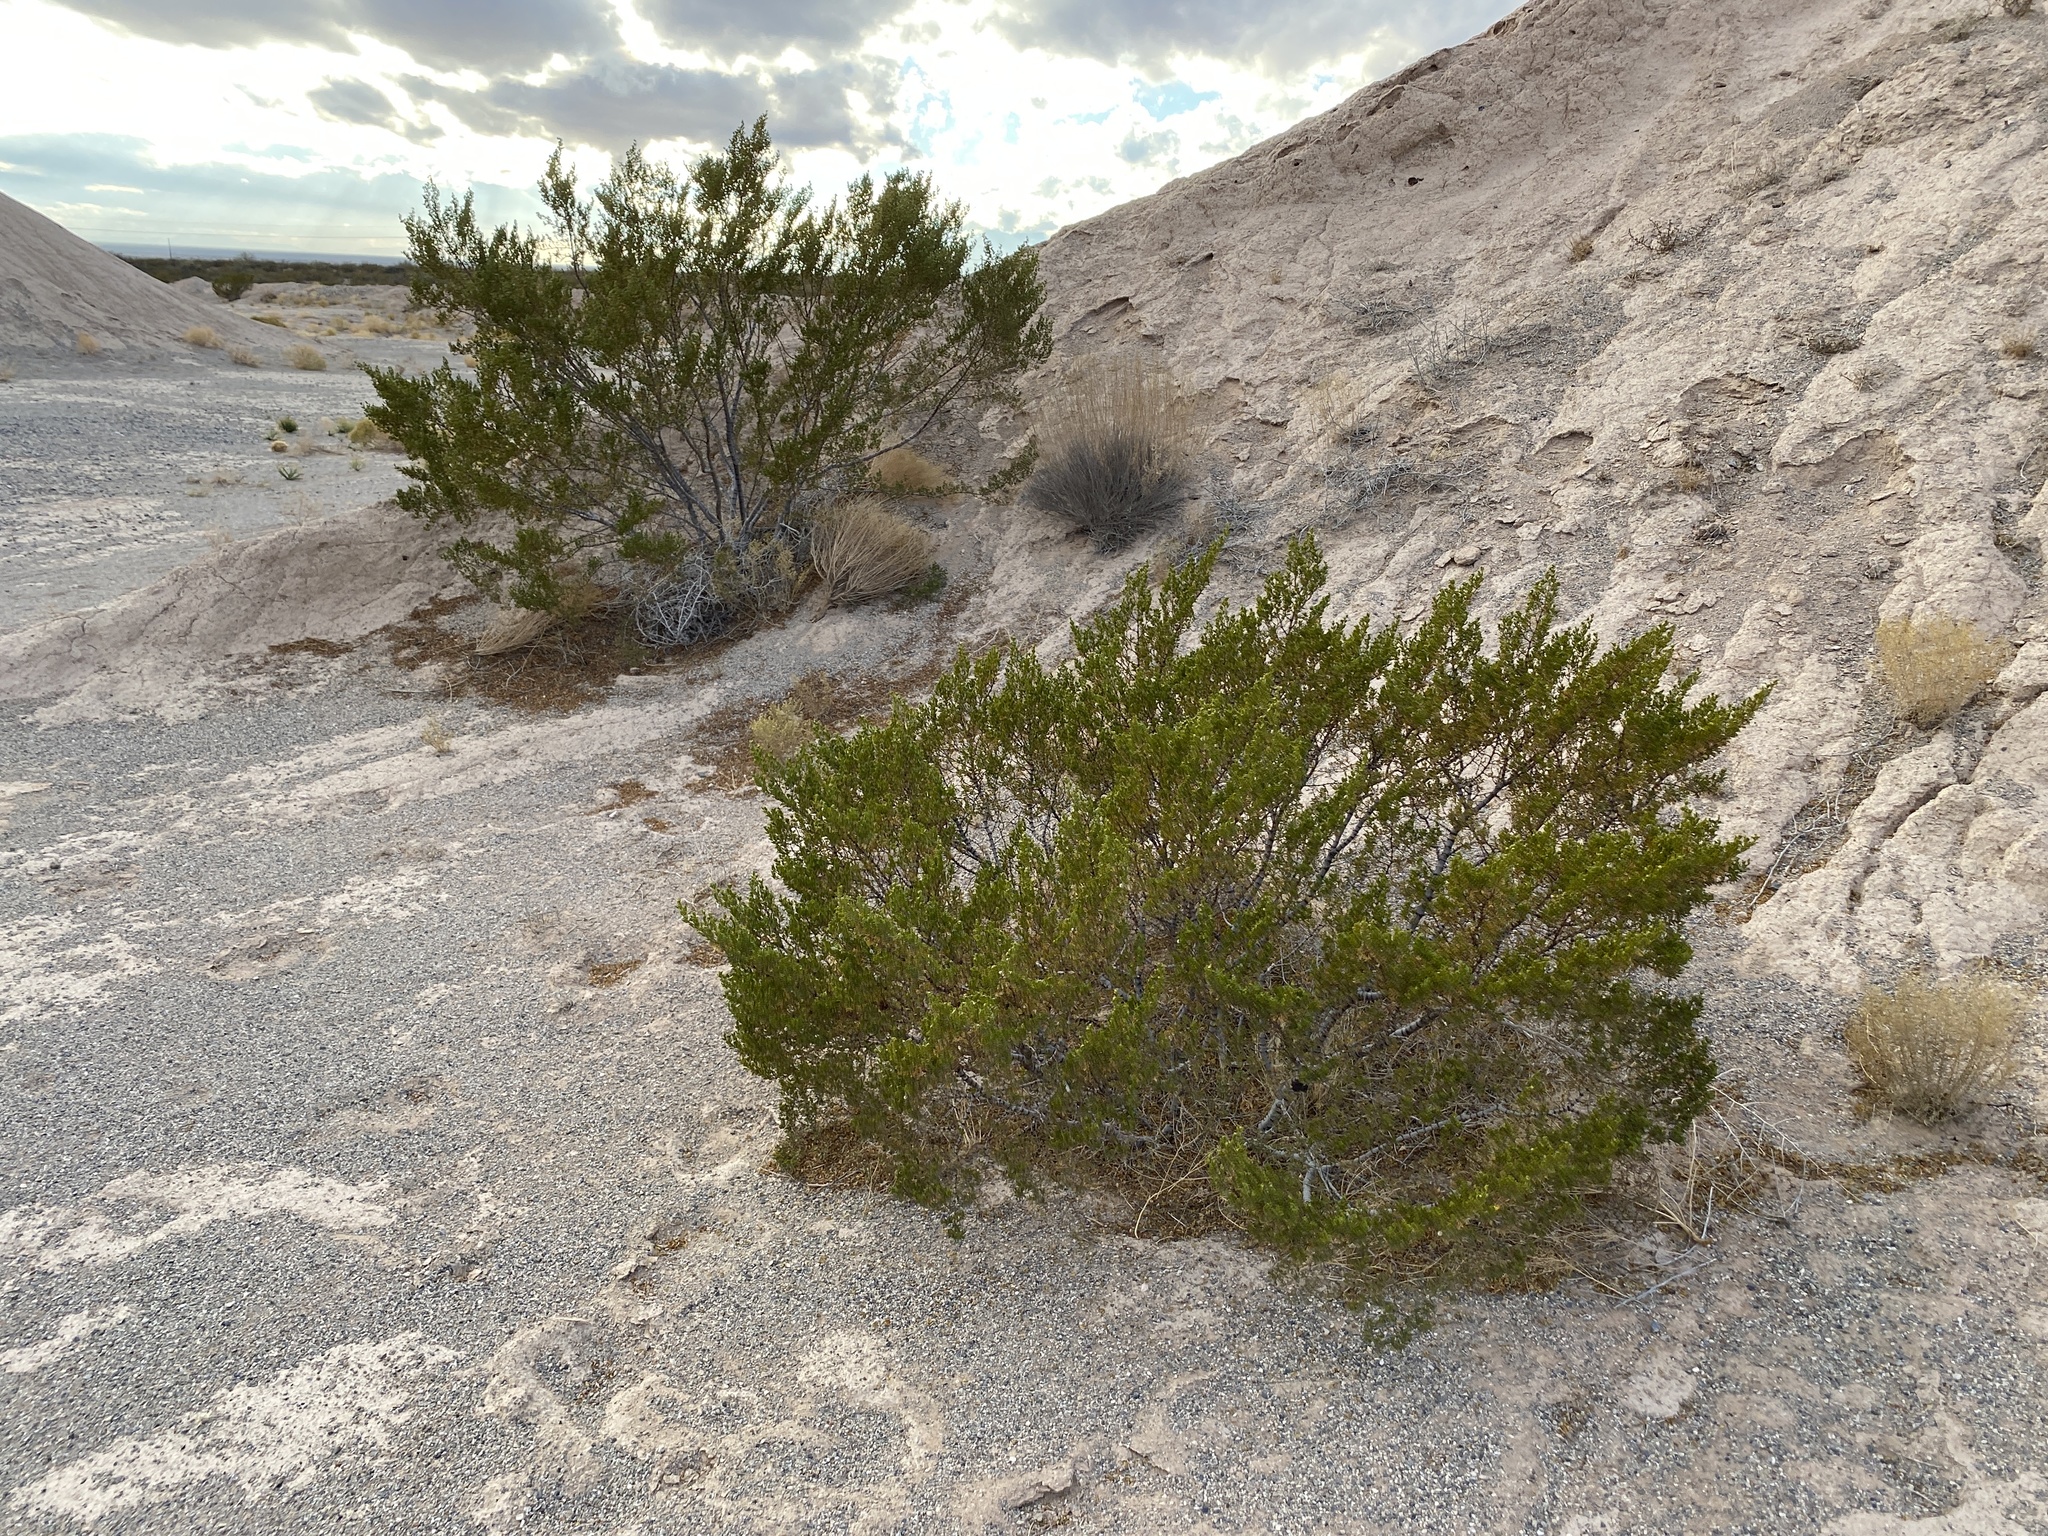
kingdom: Plantae
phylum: Tracheophyta
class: Magnoliopsida
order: Zygophyllales
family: Zygophyllaceae
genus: Larrea
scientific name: Larrea tridentata
